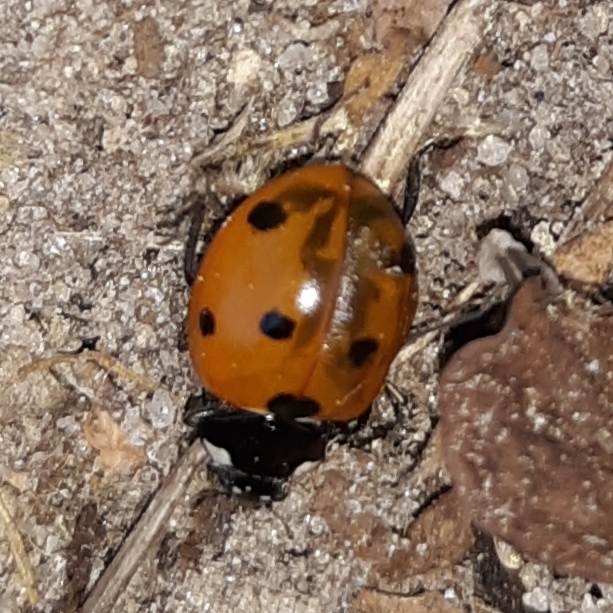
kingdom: Animalia
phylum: Arthropoda
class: Insecta
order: Coleoptera
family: Coccinellidae
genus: Coccinella
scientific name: Coccinella septempunctata
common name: Sevenspotted lady beetle
